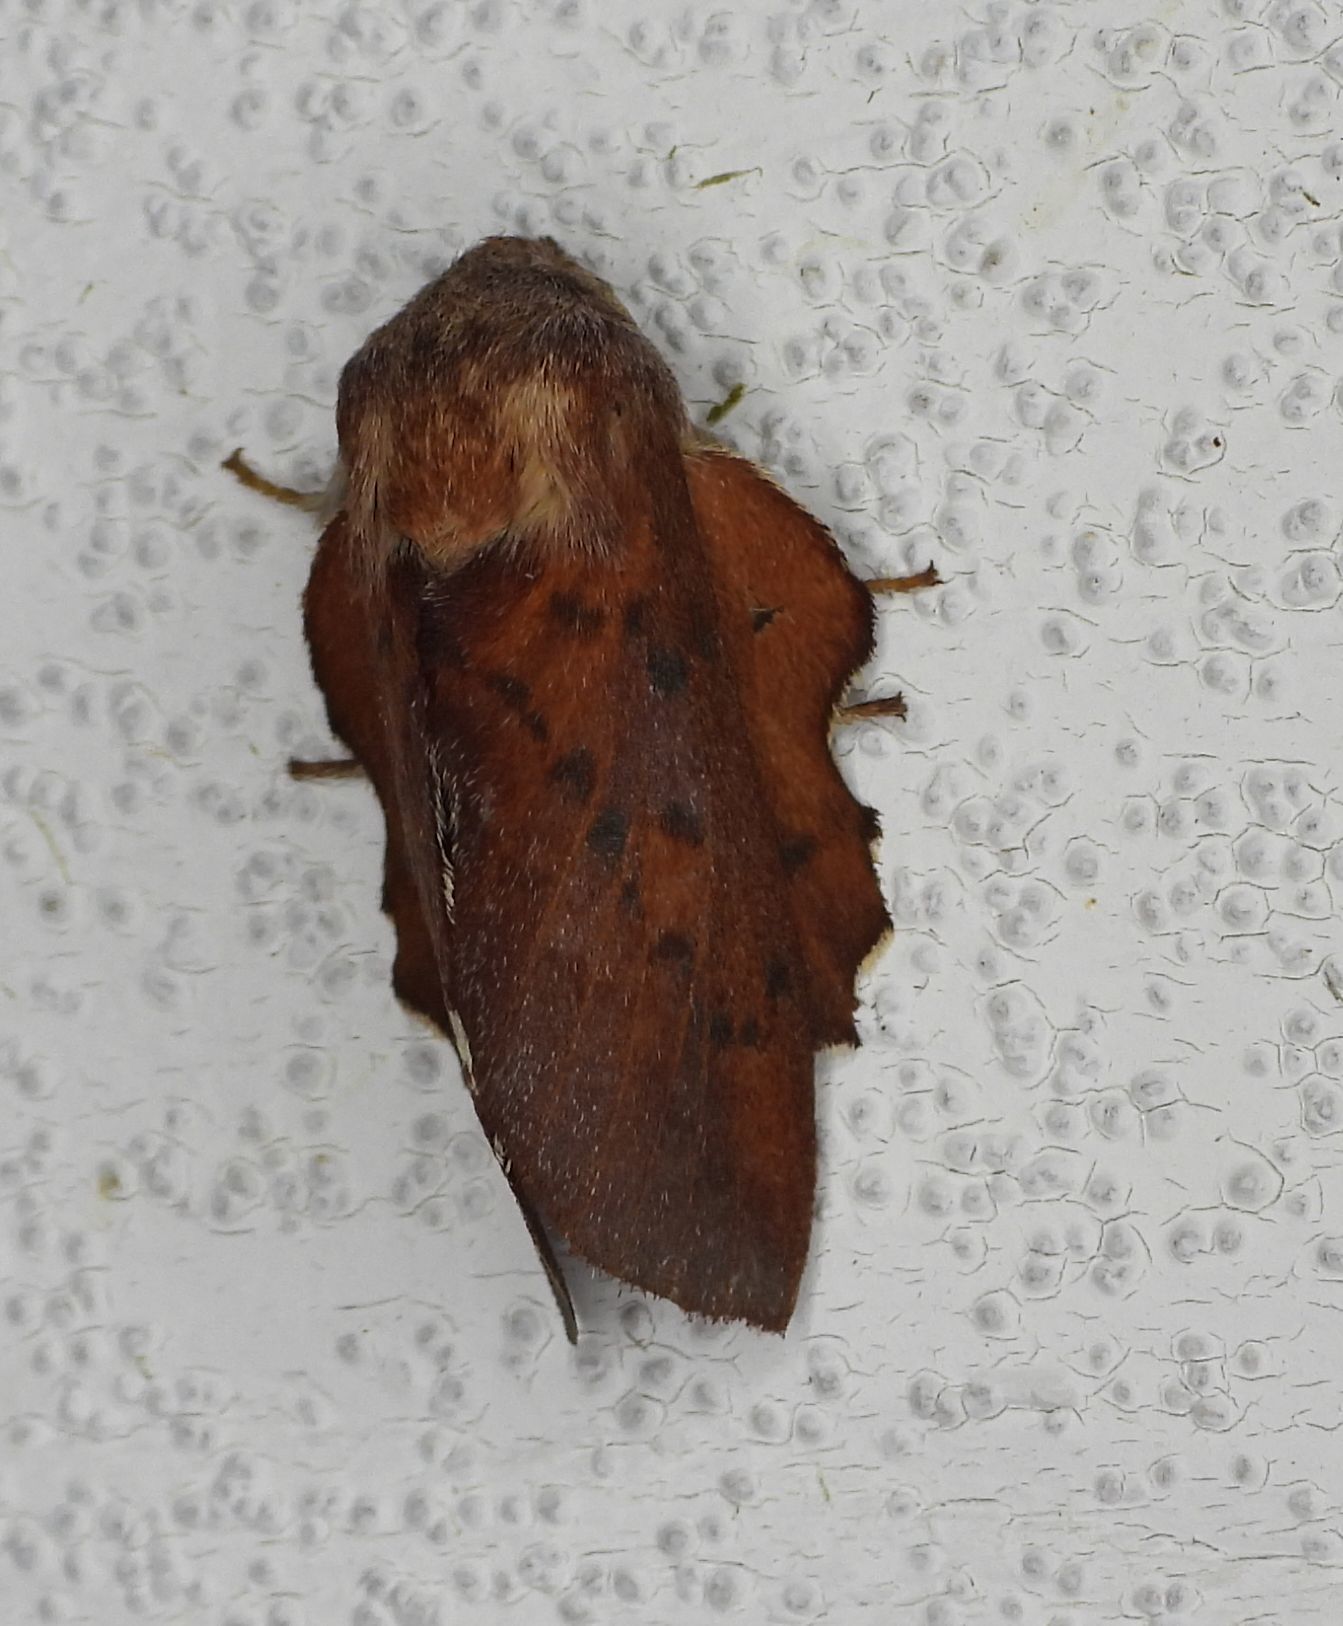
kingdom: Animalia
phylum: Arthropoda
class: Insecta
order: Lepidoptera
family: Lasiocampidae
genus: Phyllodesma
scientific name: Phyllodesma americana
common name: American lappet moth
